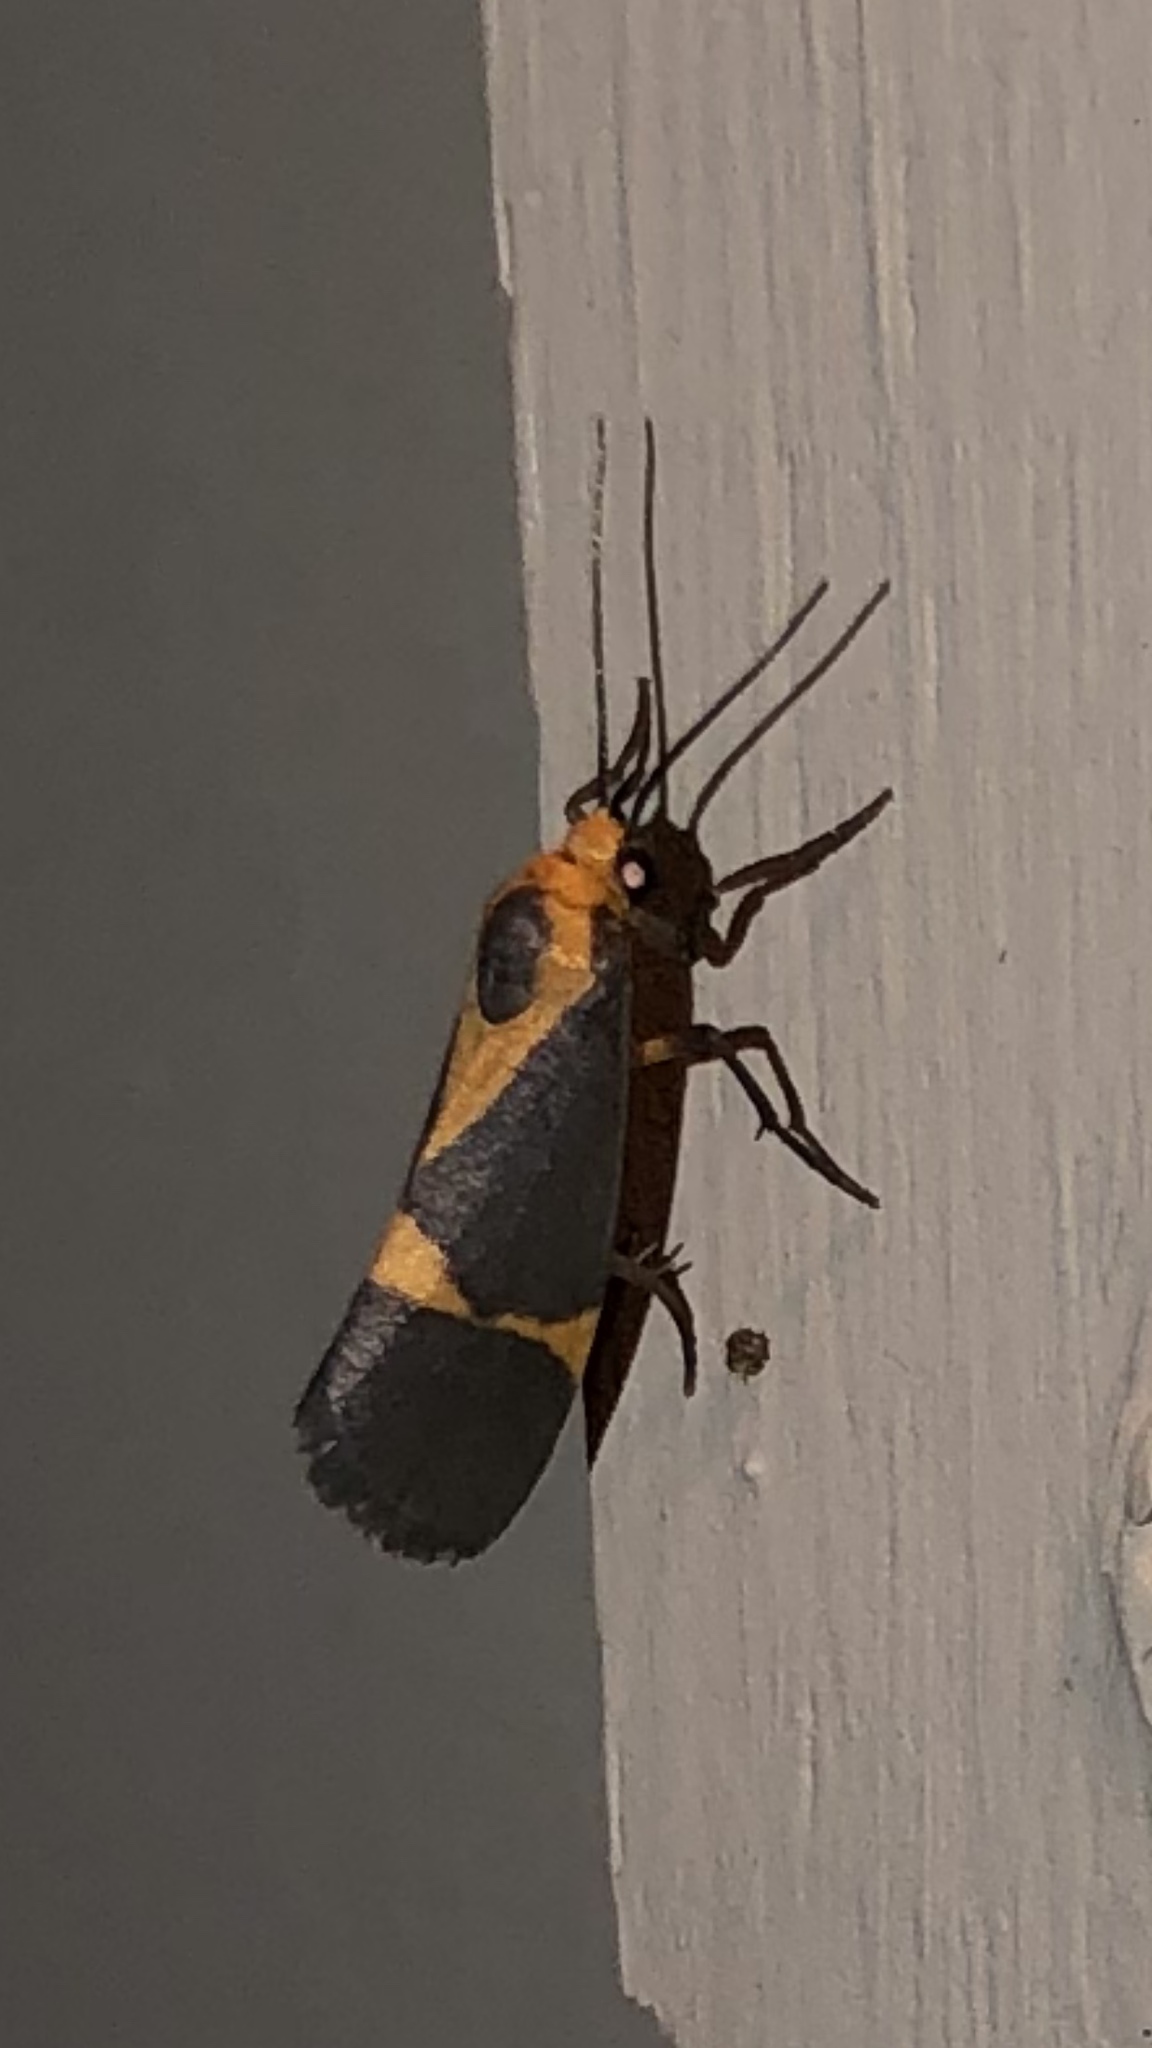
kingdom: Animalia
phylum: Arthropoda
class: Insecta
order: Lepidoptera
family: Erebidae
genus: Cisthene
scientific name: Cisthene tenuifascia
